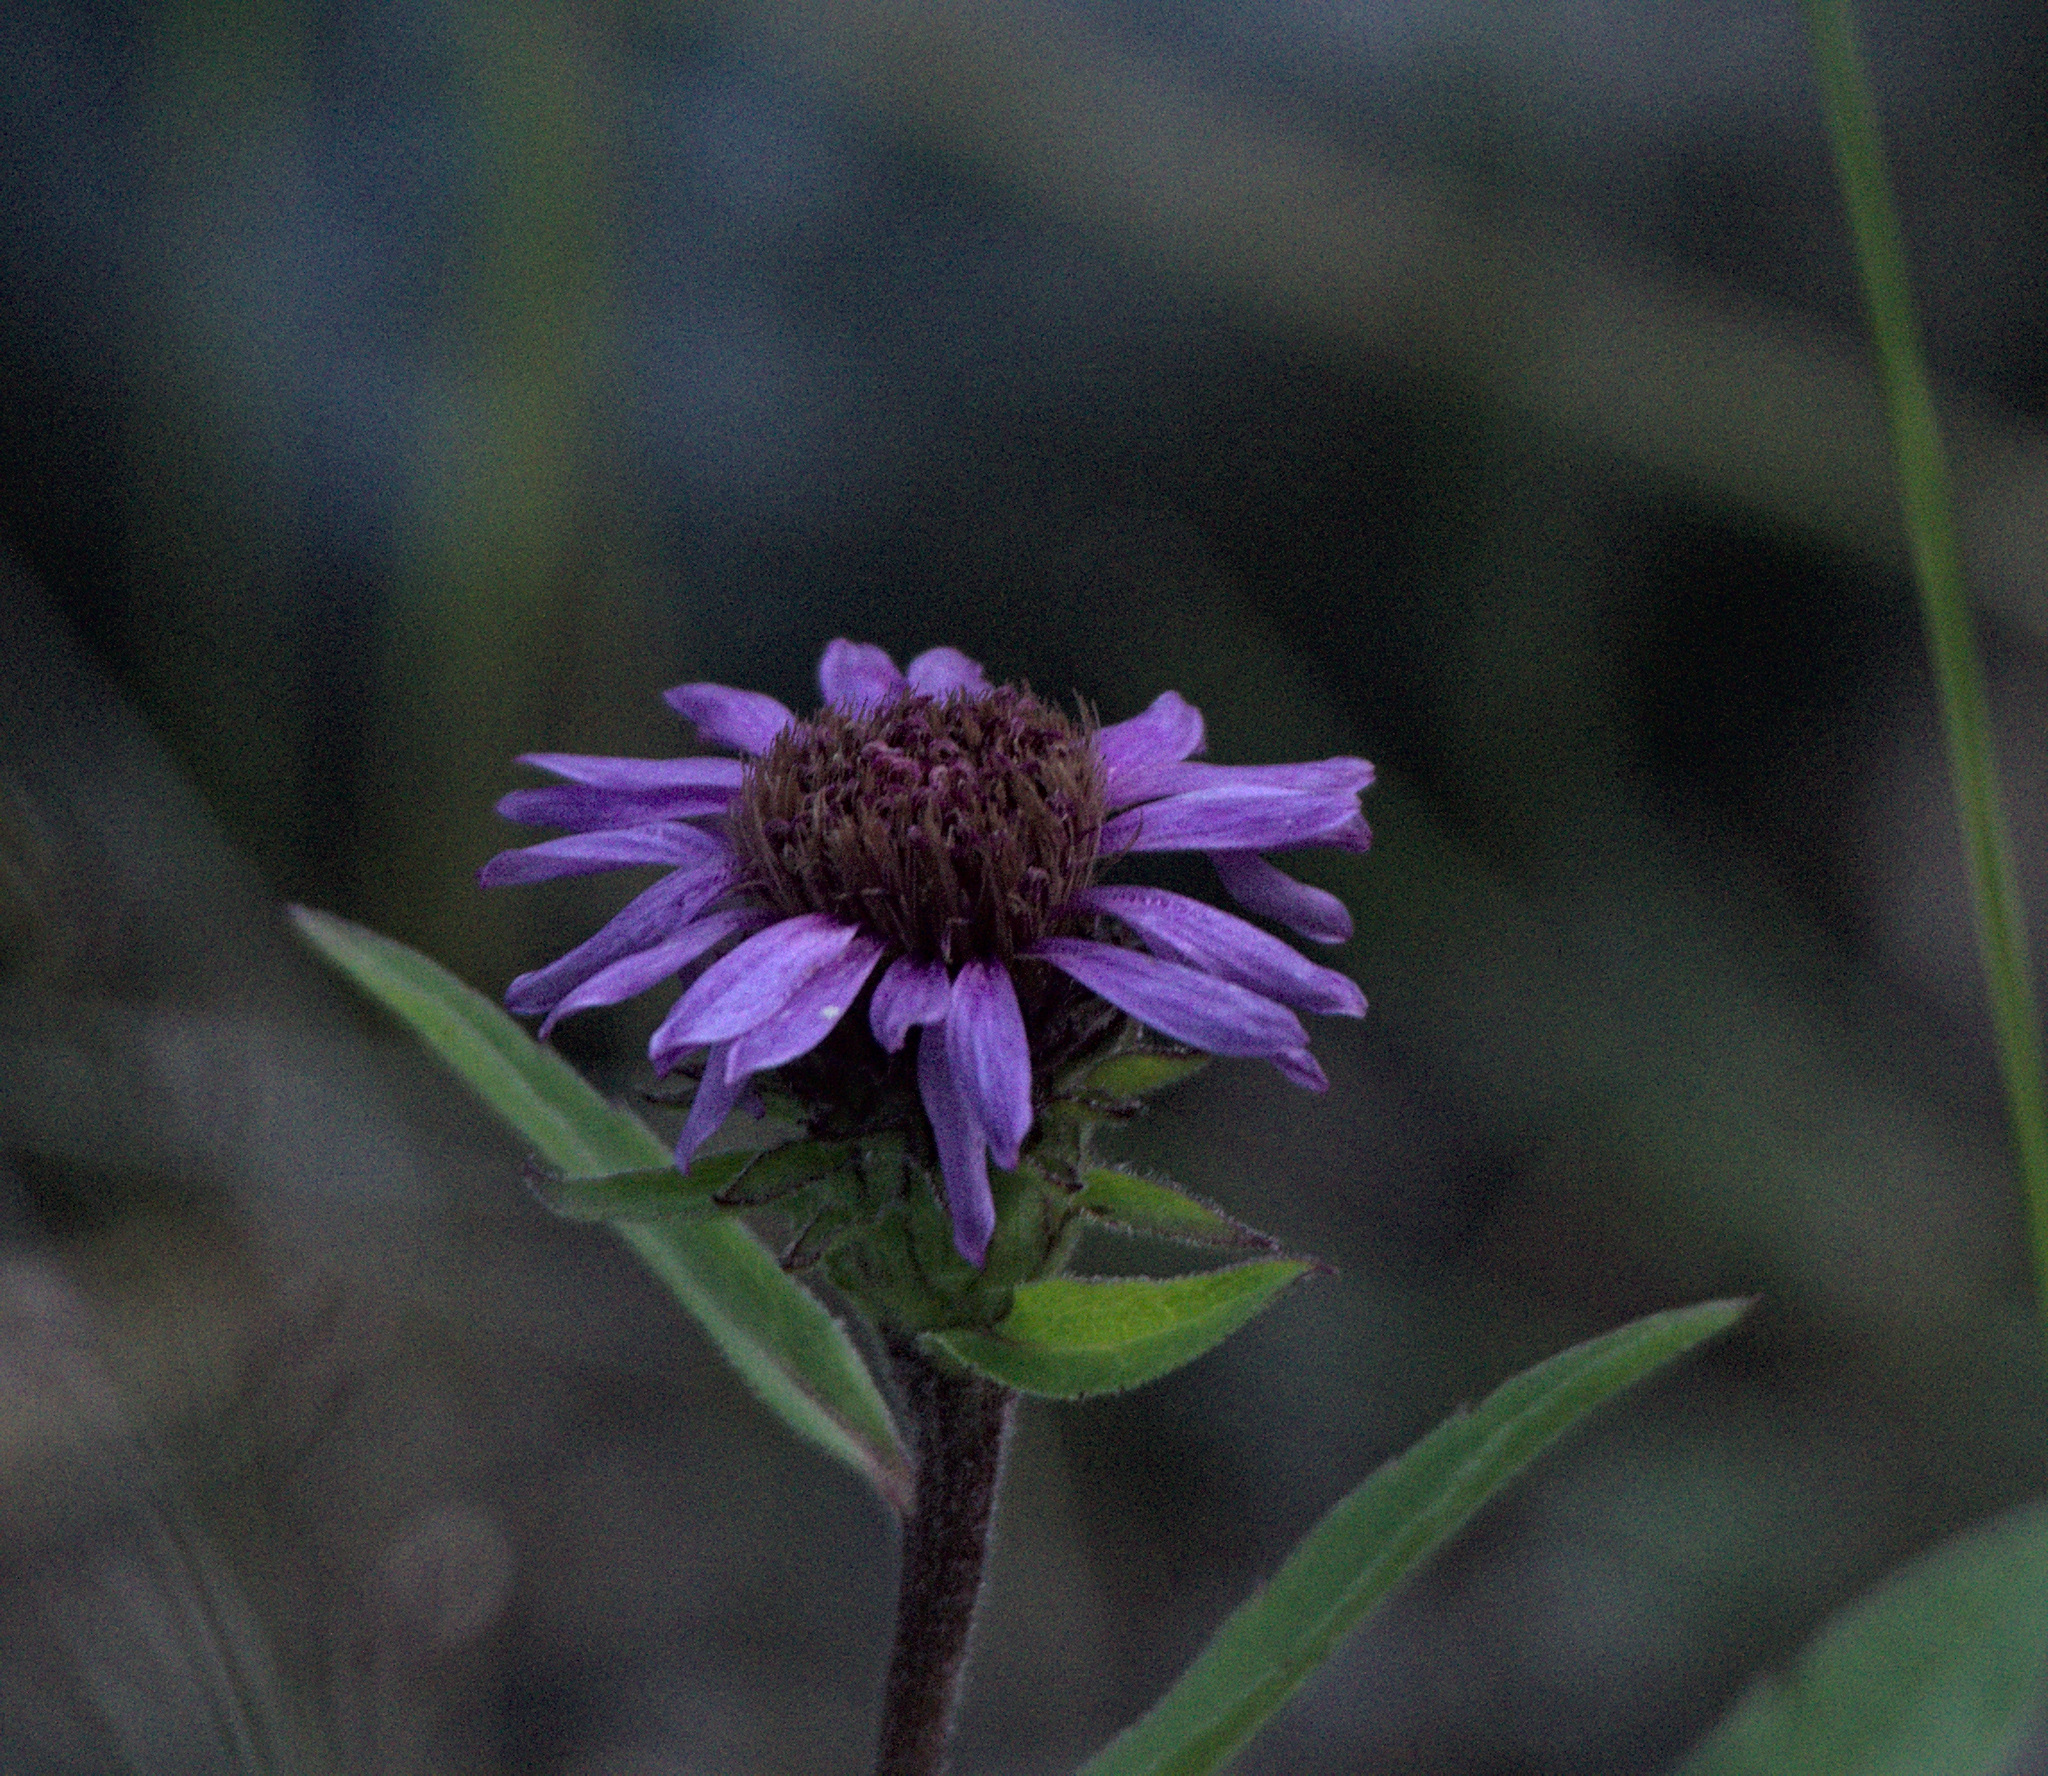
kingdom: Plantae
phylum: Tracheophyta
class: Magnoliopsida
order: Asterales
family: Asteraceae
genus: Eurybia
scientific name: Eurybia sibirica
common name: Arctic aster
